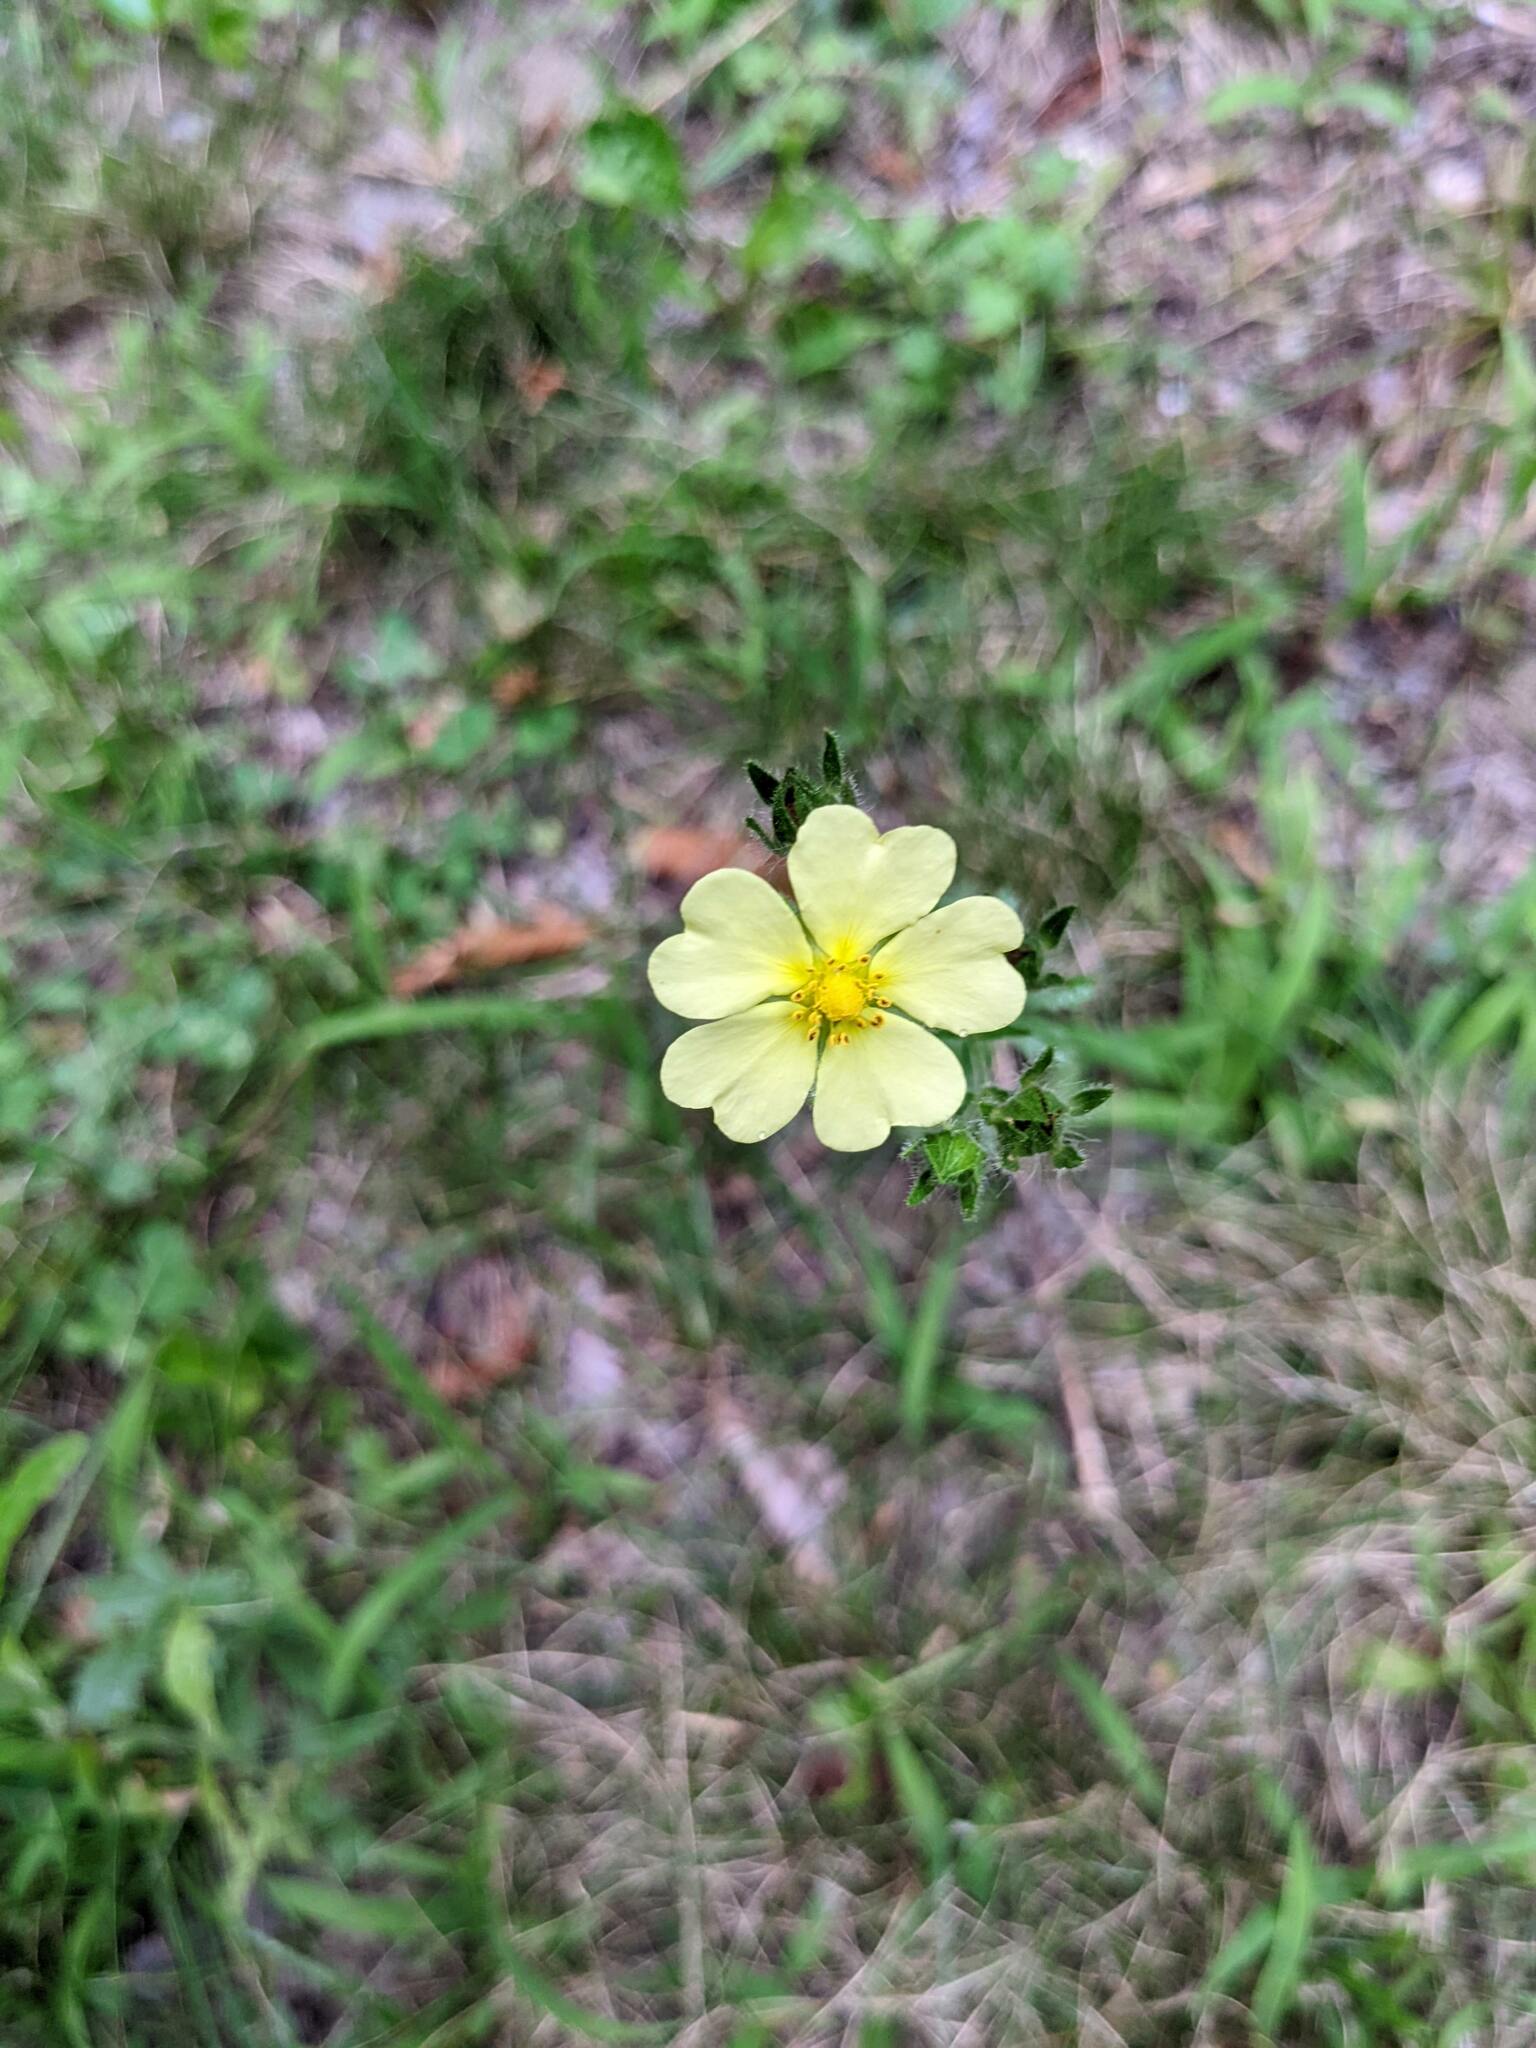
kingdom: Plantae
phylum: Tracheophyta
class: Magnoliopsida
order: Rosales
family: Rosaceae
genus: Potentilla
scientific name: Potentilla recta
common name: Sulphur cinquefoil
